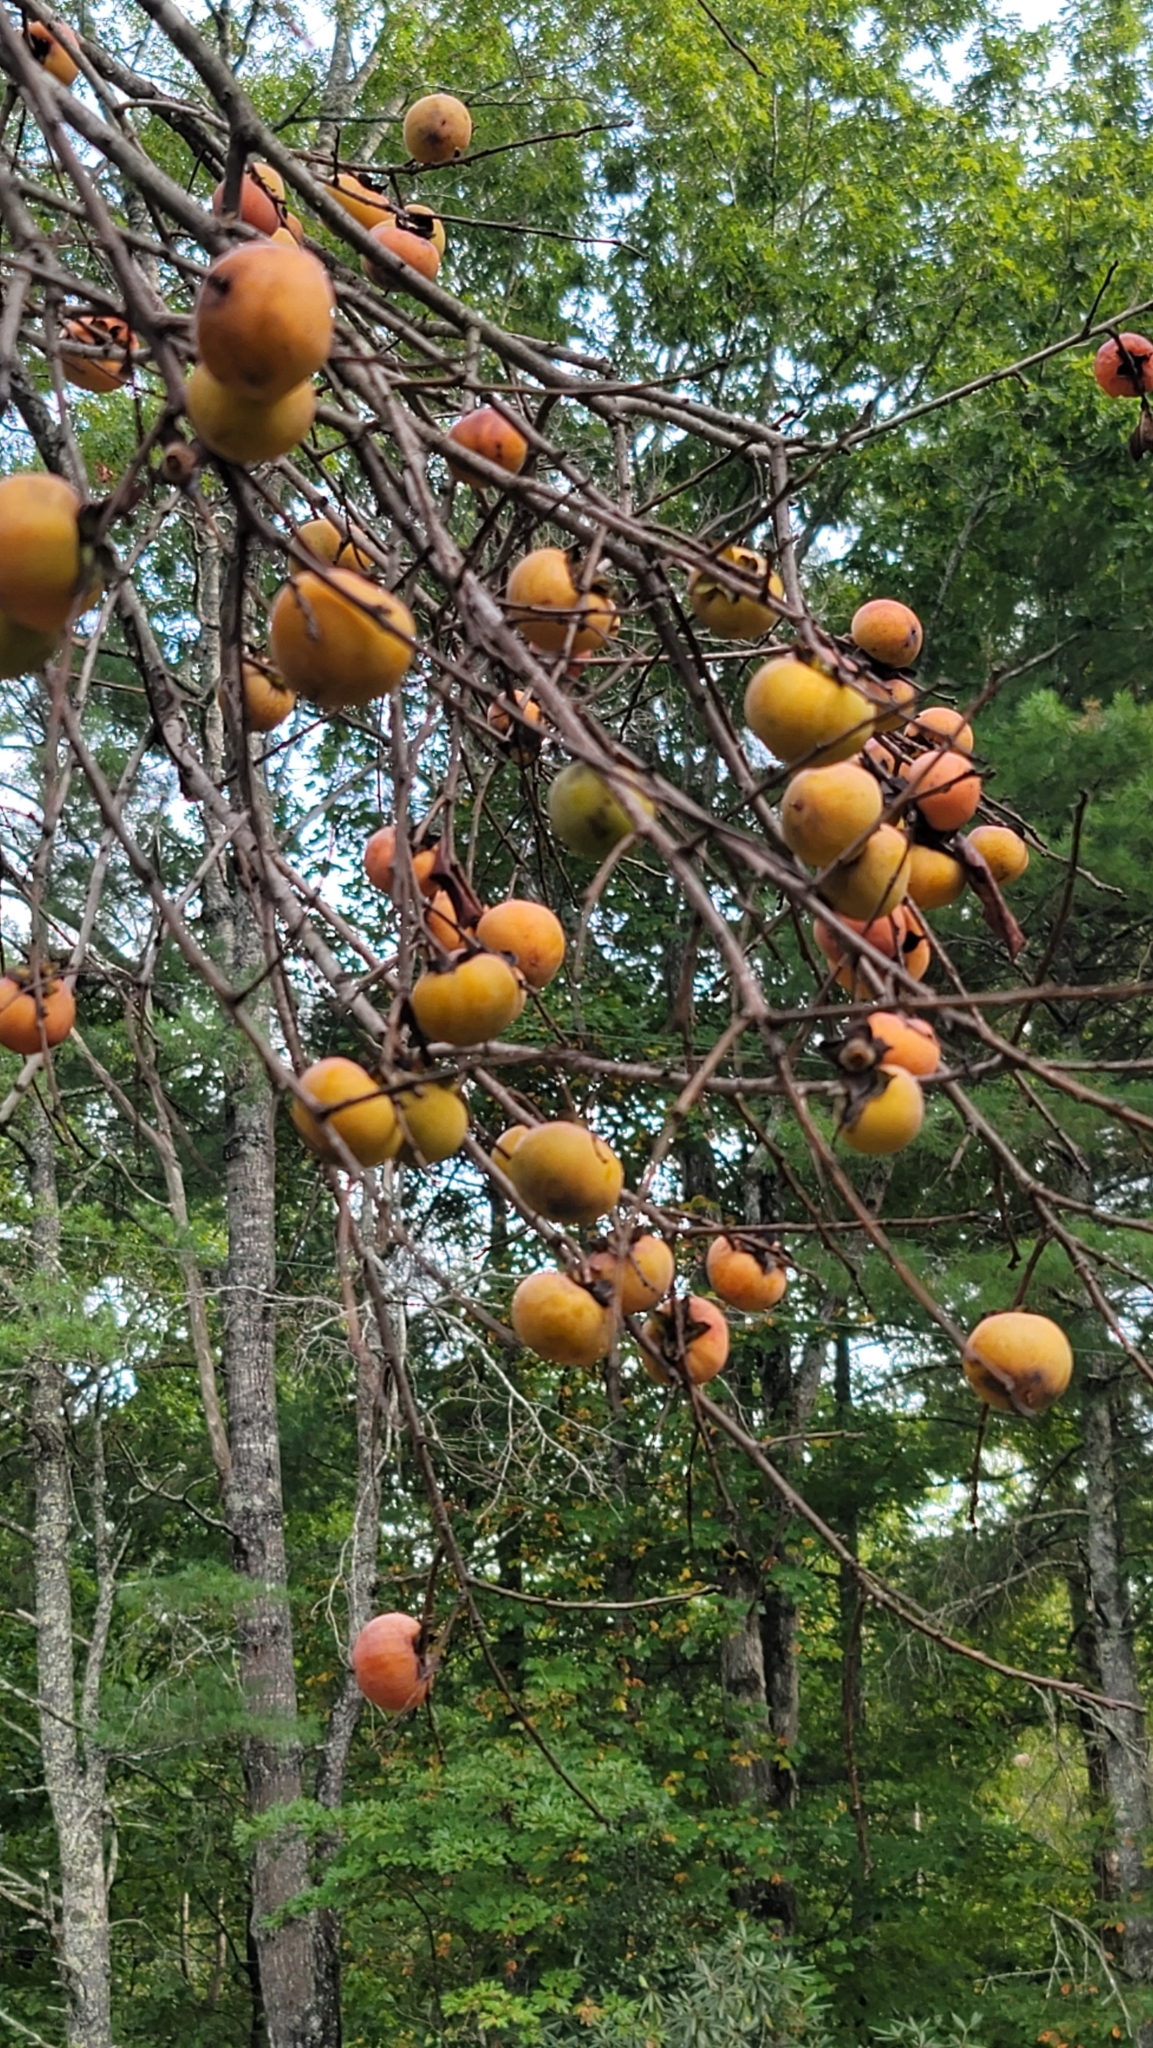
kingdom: Plantae
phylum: Tracheophyta
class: Magnoliopsida
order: Ericales
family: Ebenaceae
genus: Diospyros
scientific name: Diospyros virginiana
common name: Persimmon
